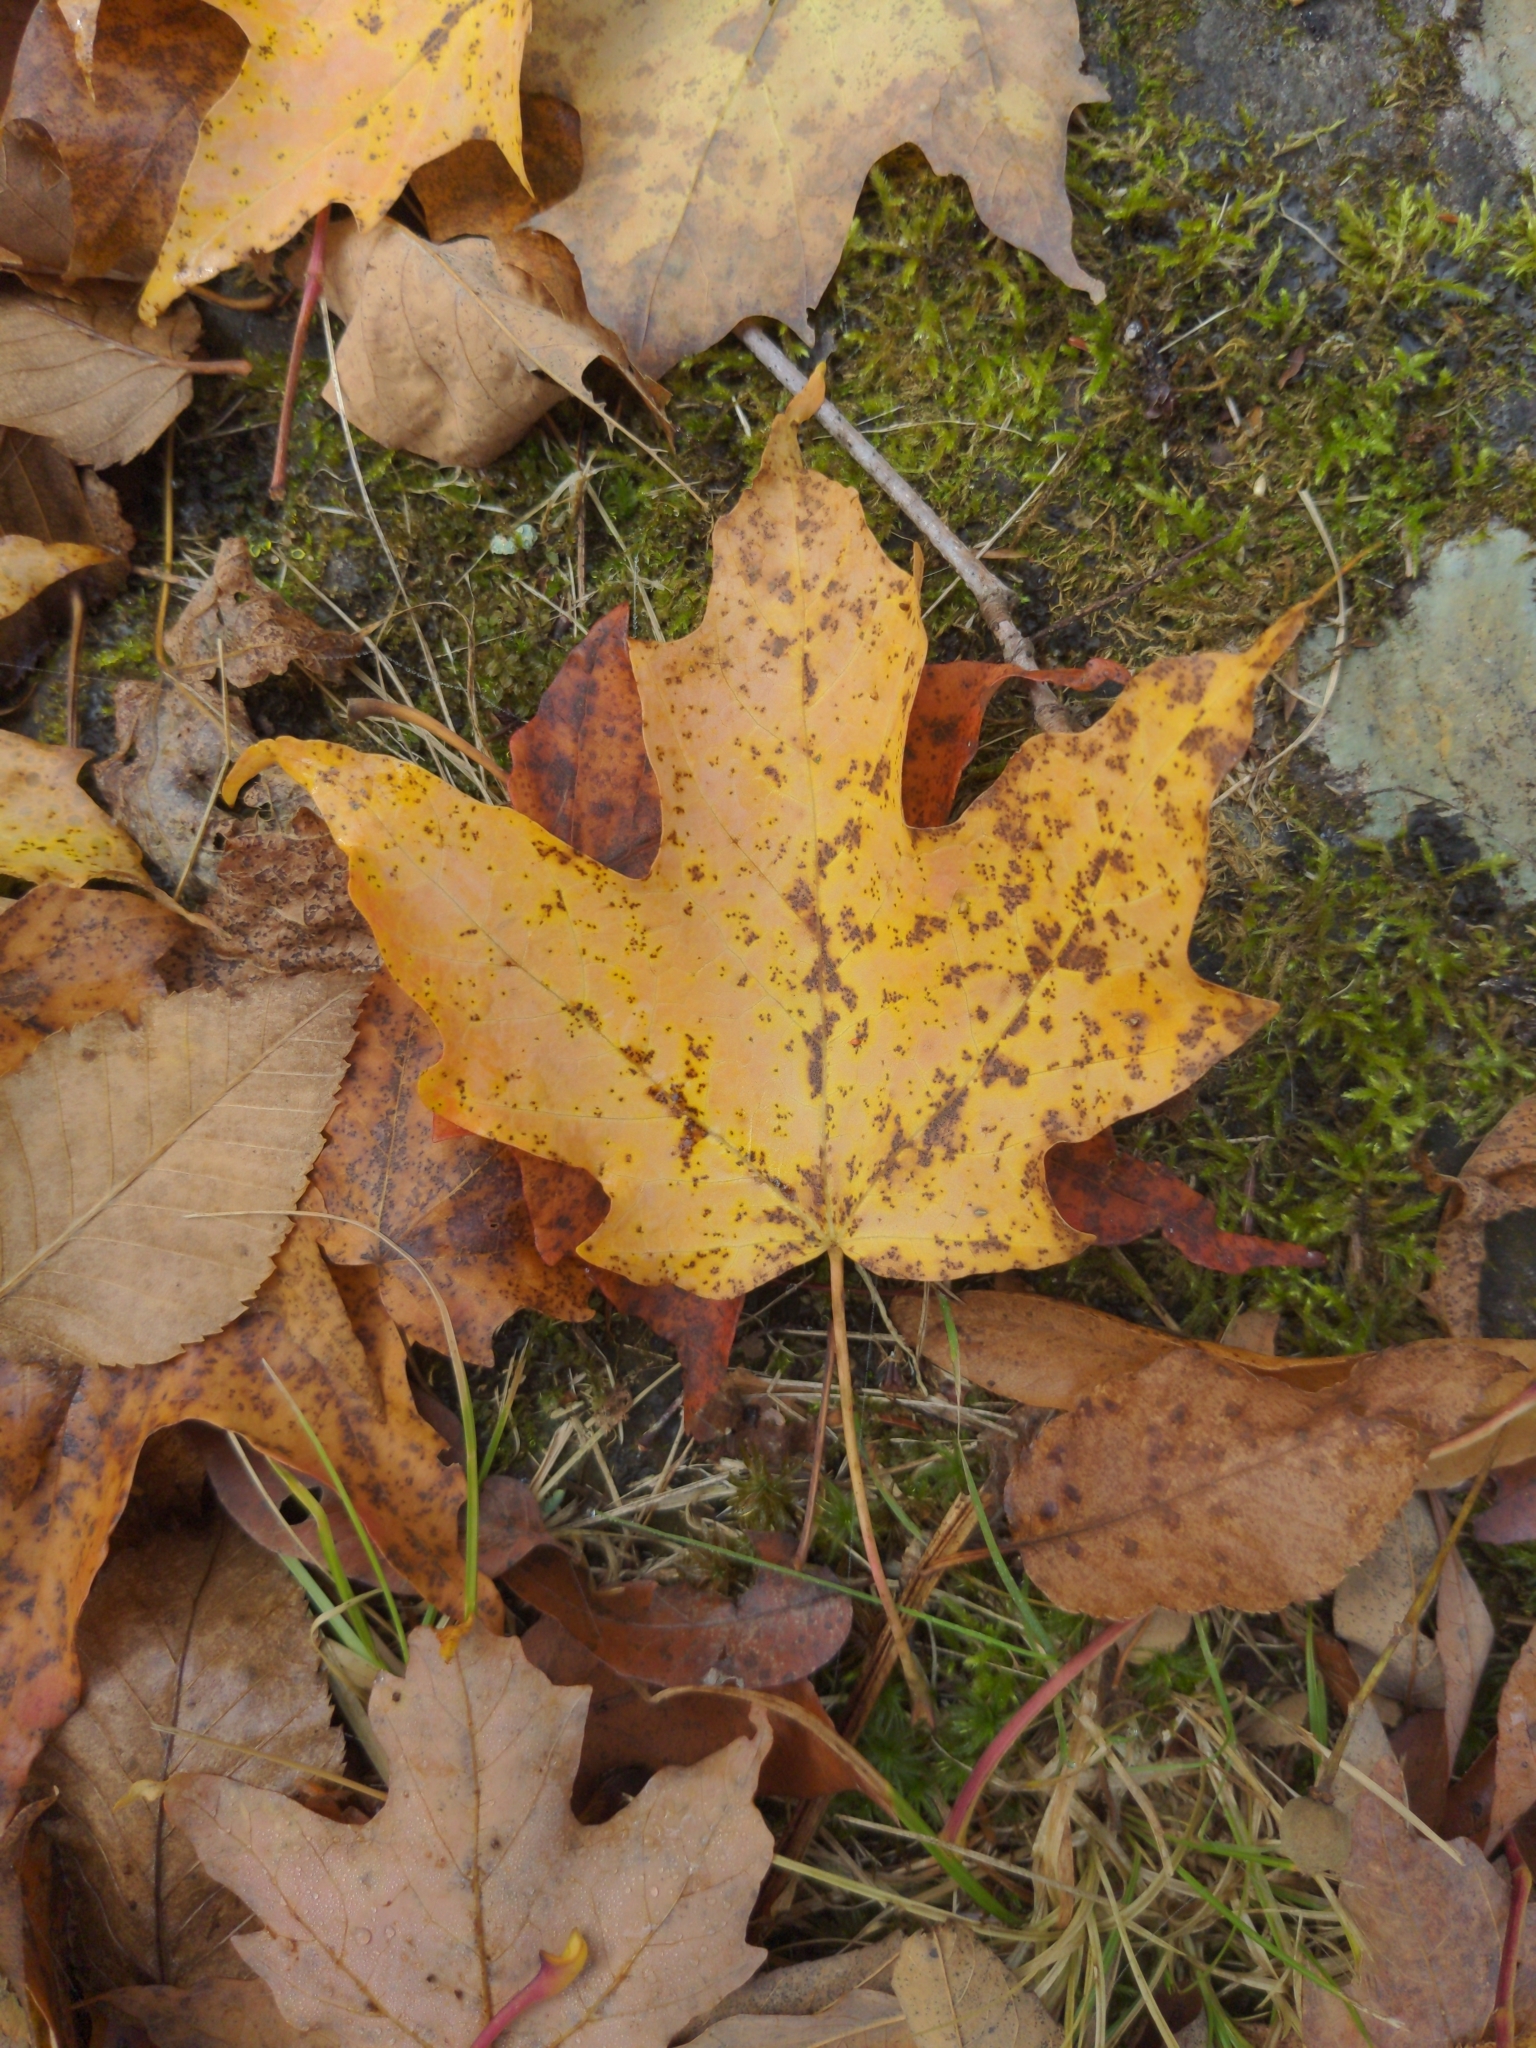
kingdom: Plantae
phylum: Tracheophyta
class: Magnoliopsida
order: Sapindales
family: Sapindaceae
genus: Acer
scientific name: Acer saccharum
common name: Sugar maple
